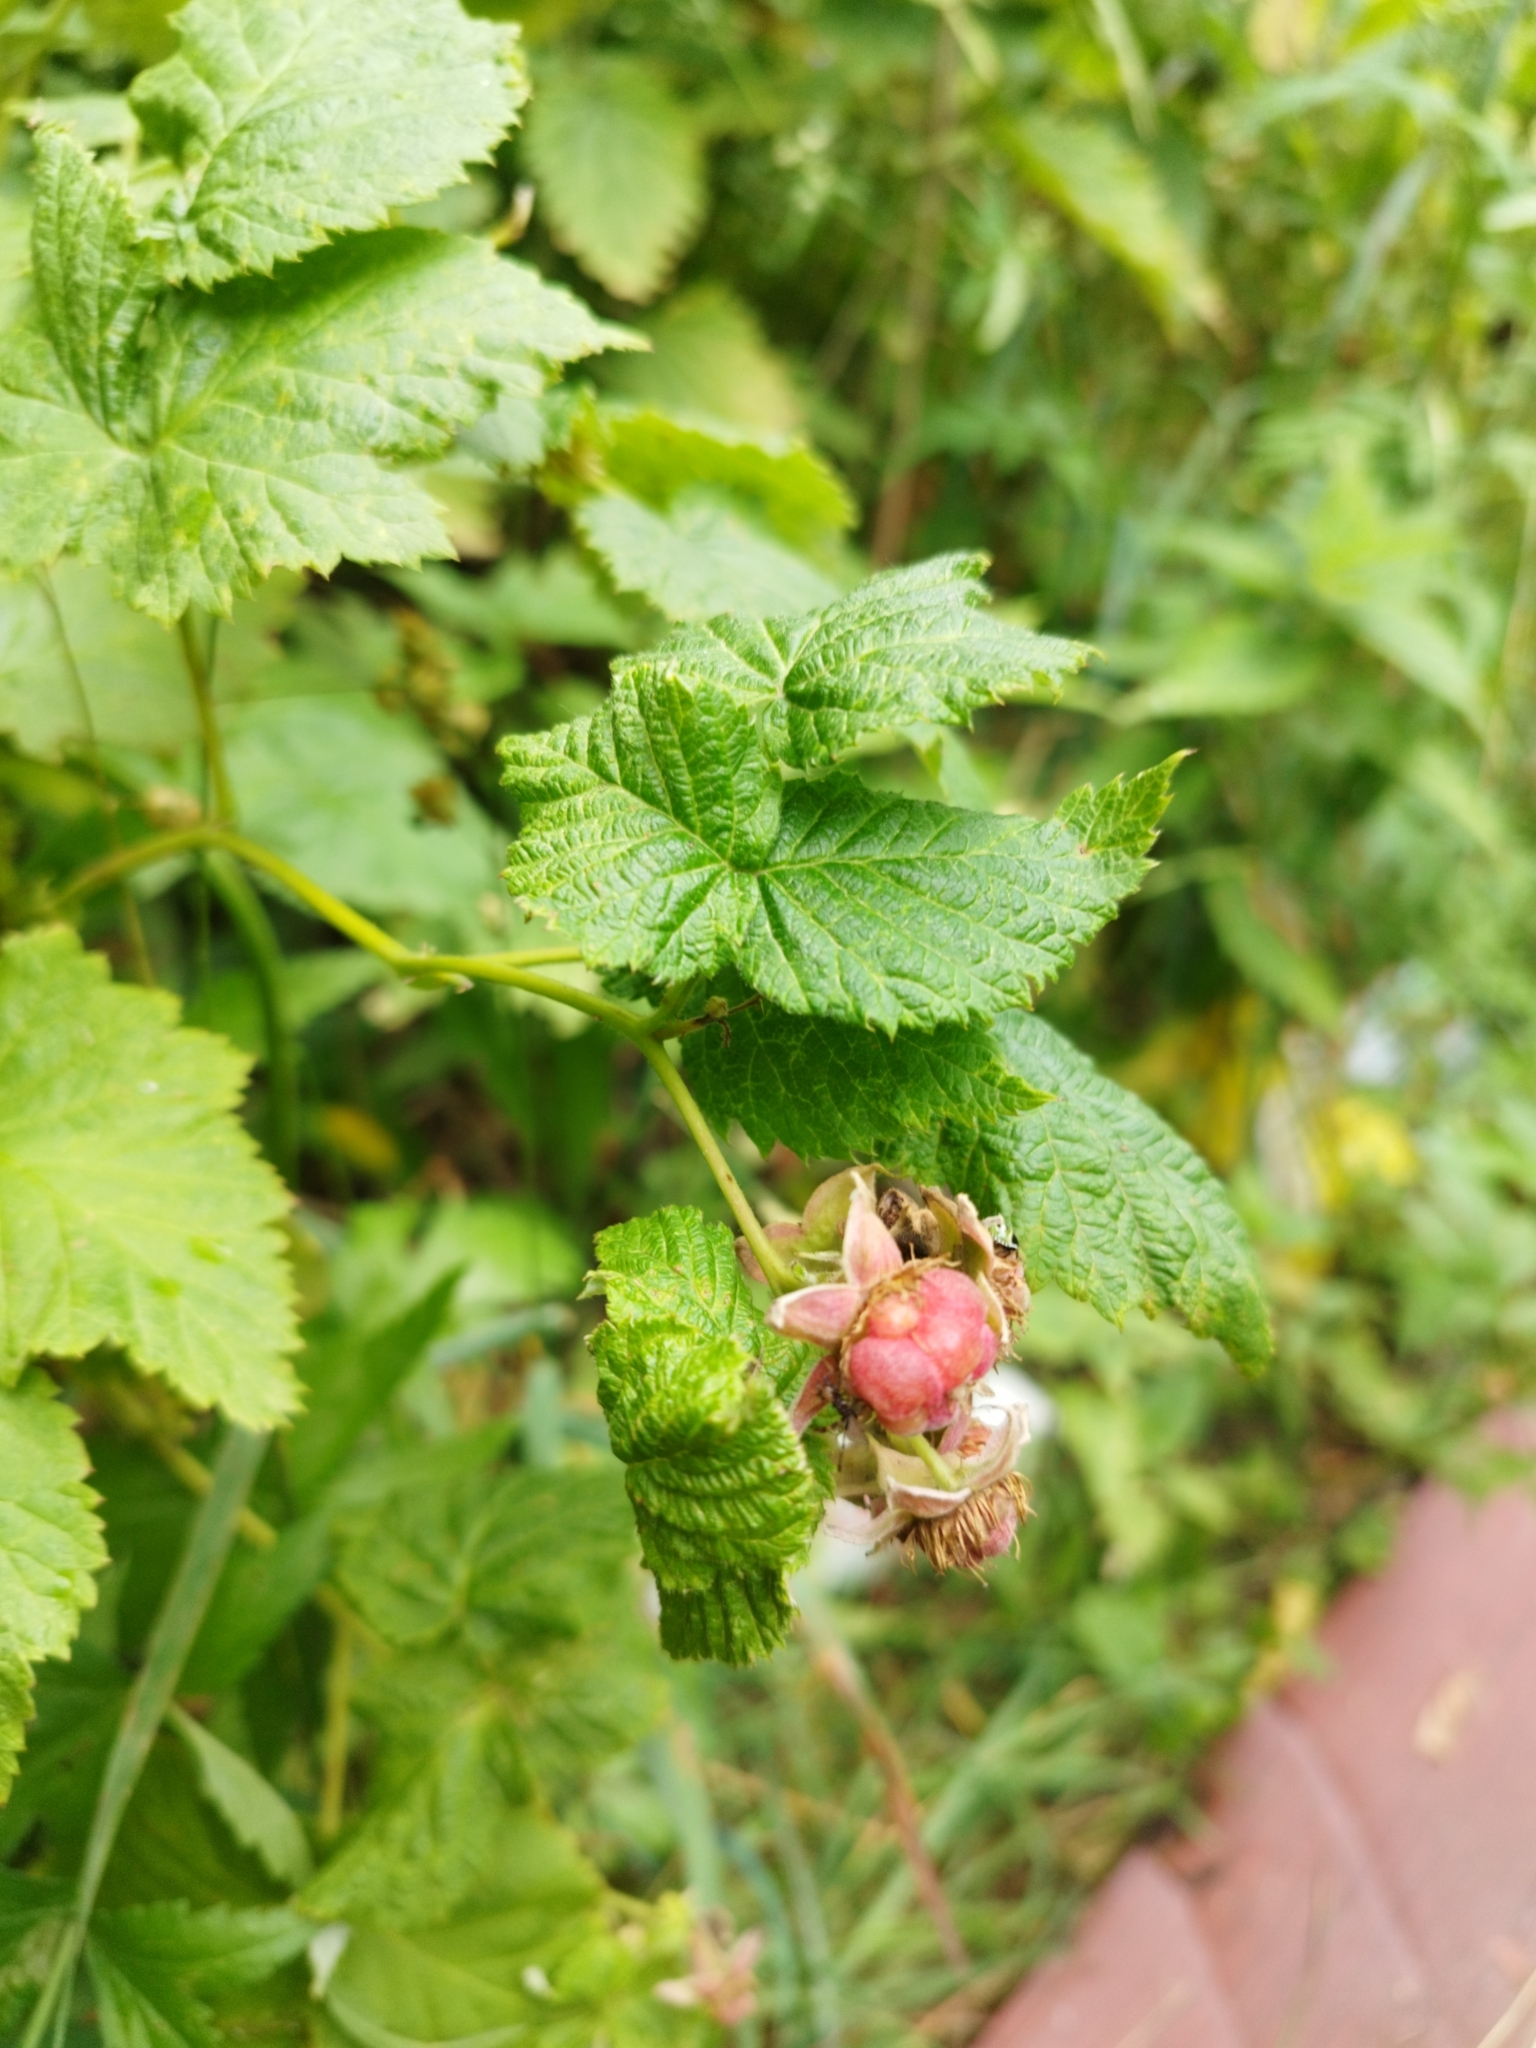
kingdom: Plantae
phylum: Tracheophyta
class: Magnoliopsida
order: Rosales
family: Rosaceae
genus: Rubus
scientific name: Rubus idaeus
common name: Raspberry
